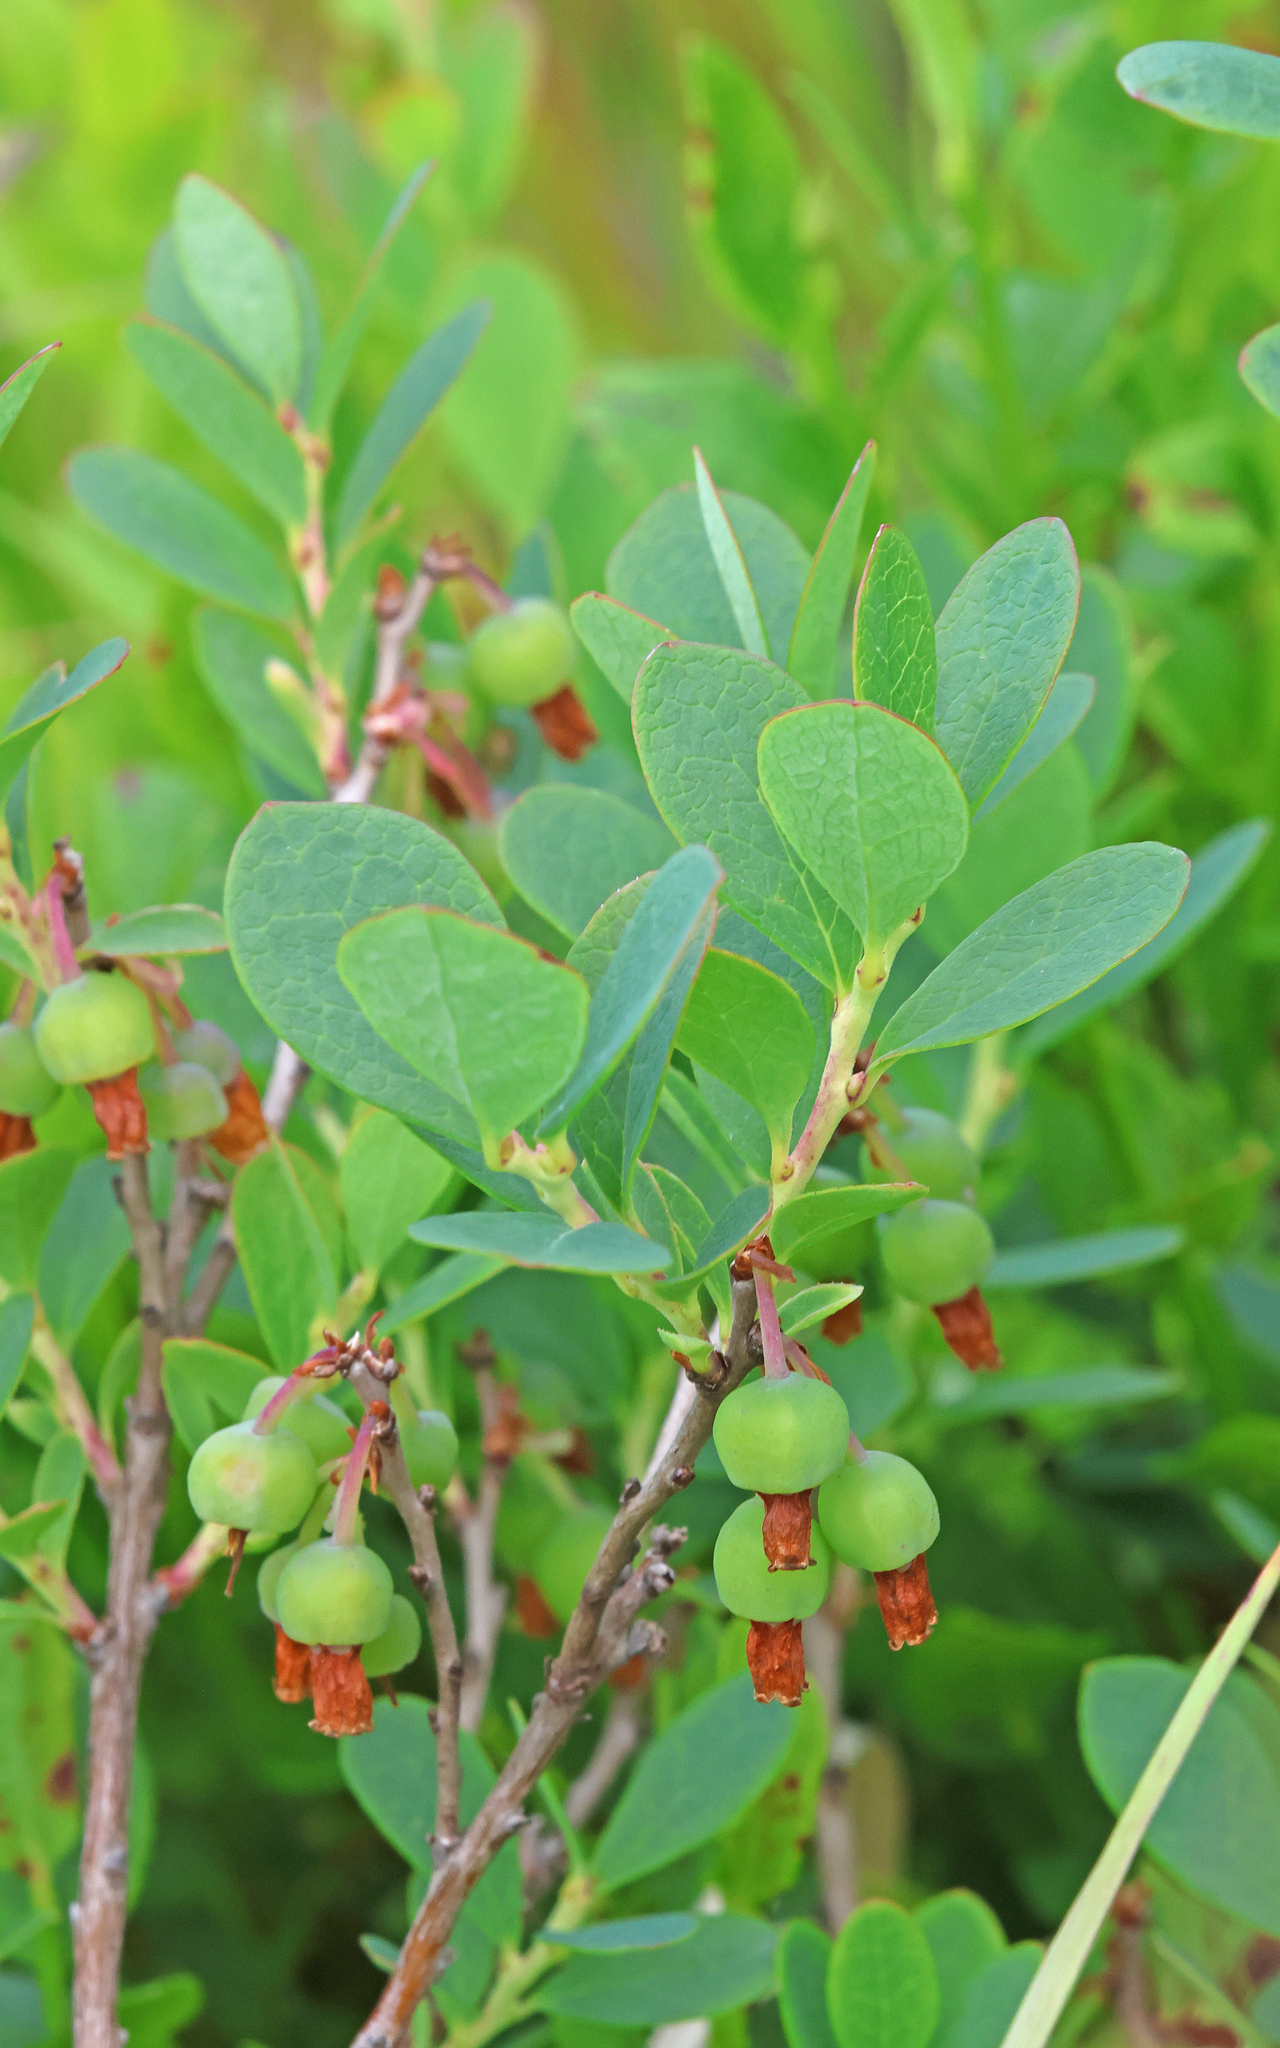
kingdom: Plantae
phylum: Tracheophyta
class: Magnoliopsida
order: Ericales
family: Ericaceae
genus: Vaccinium
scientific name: Vaccinium uliginosum
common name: Bog bilberry
